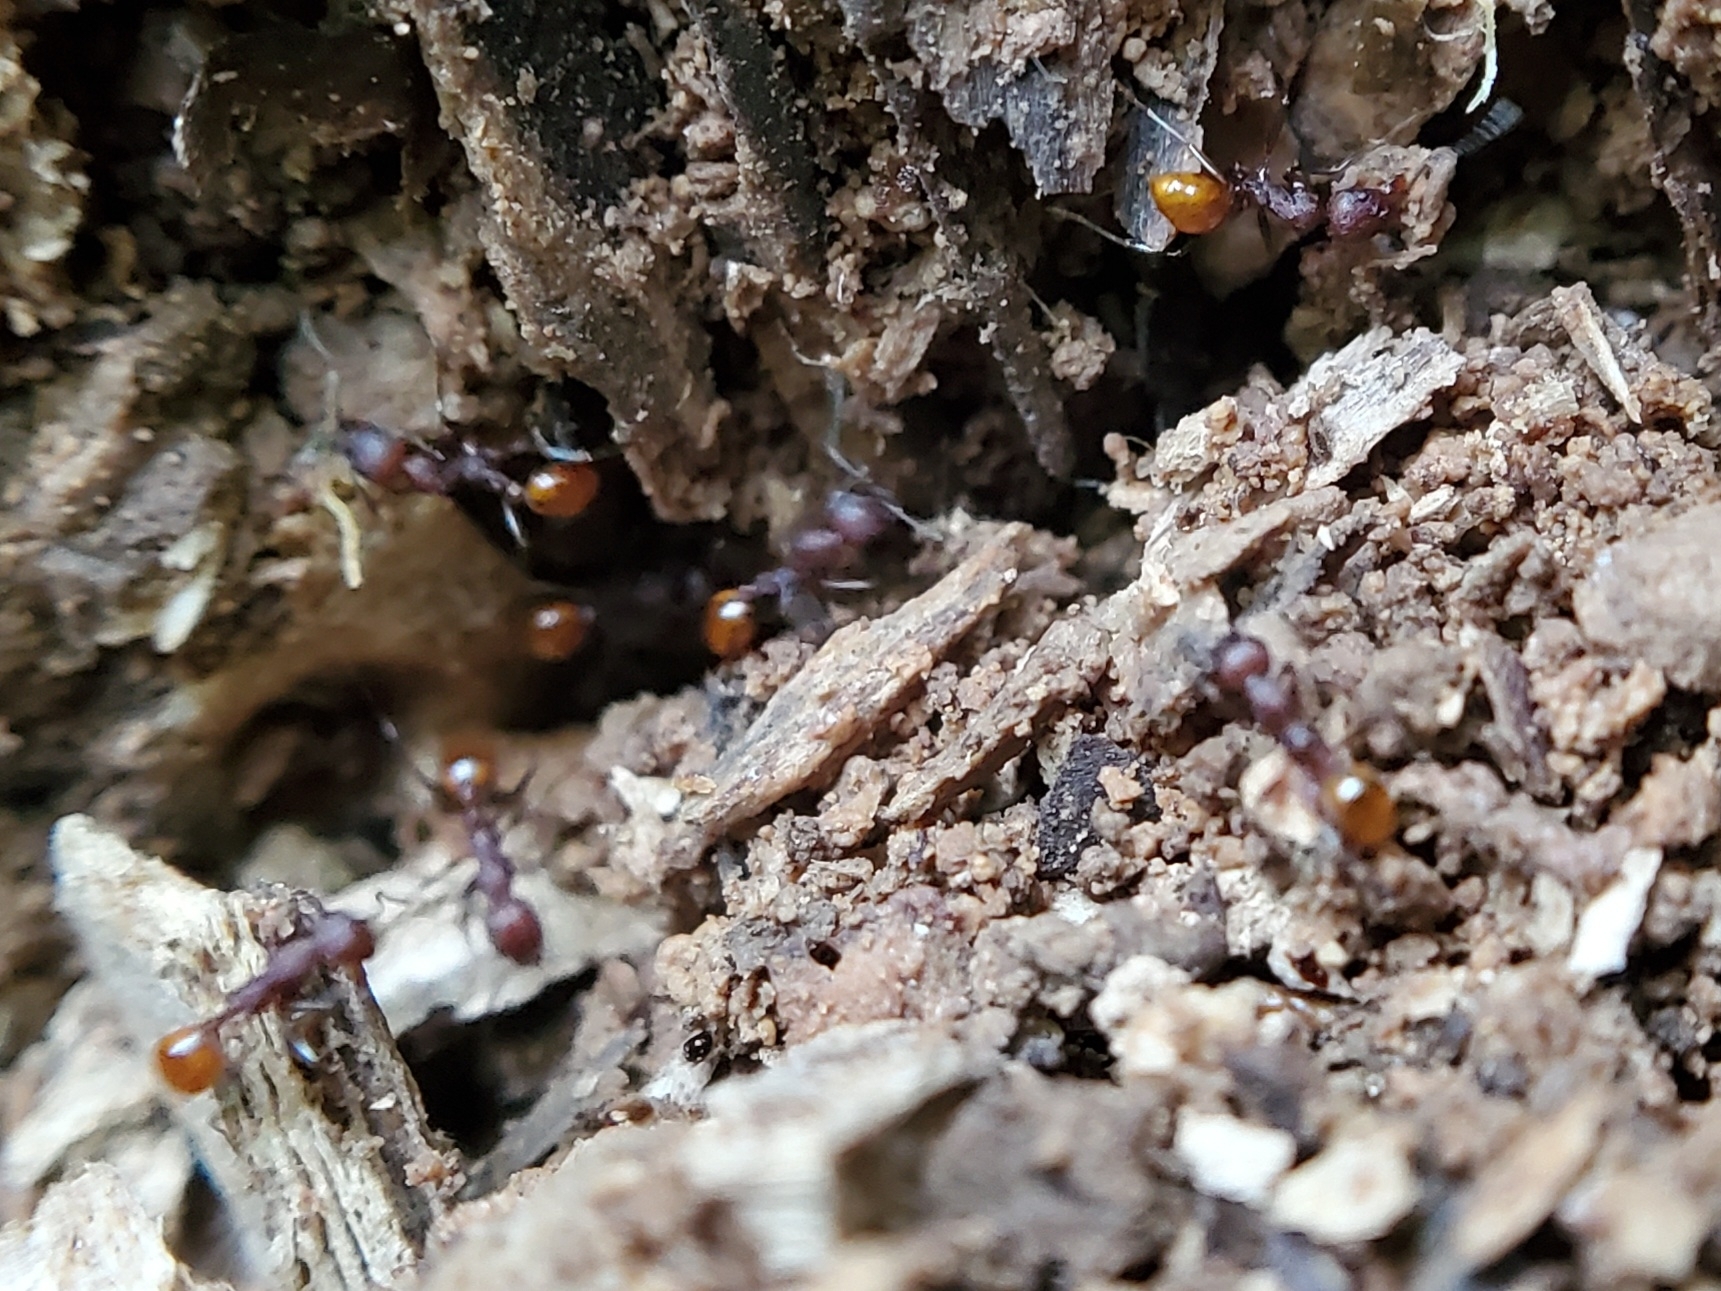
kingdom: Animalia
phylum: Arthropoda
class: Insecta
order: Hymenoptera
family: Formicidae
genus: Aphaenogaster
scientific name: Aphaenogaster tennesseensis
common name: Tennessee thread-waisted ant
